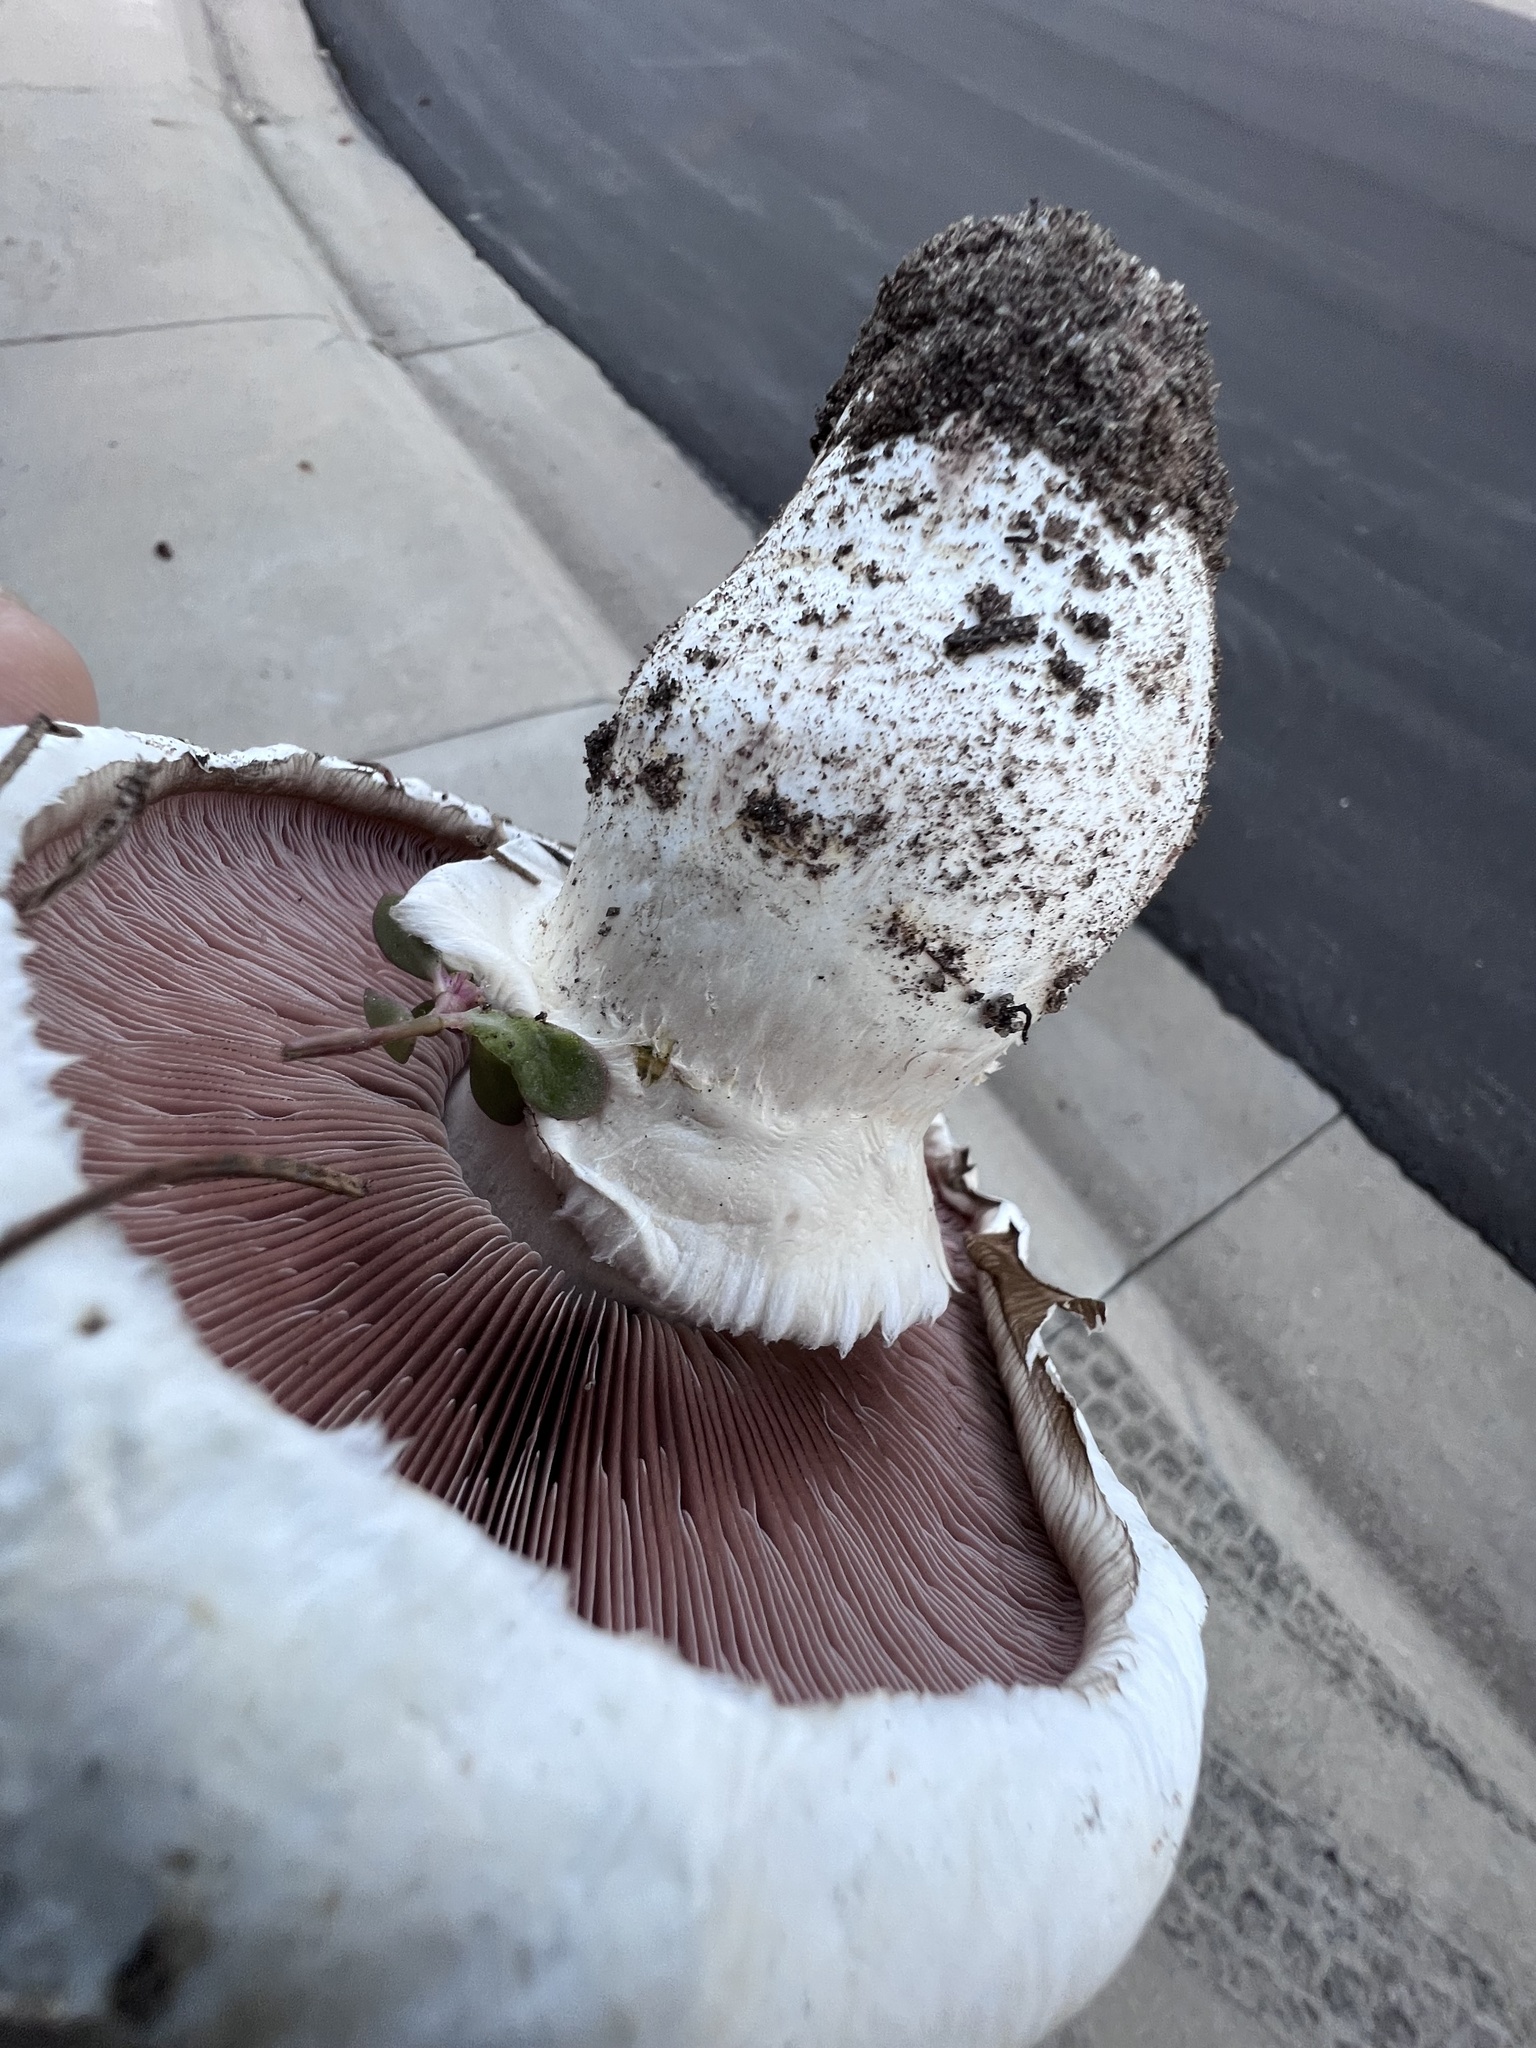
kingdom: Fungi
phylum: Basidiomycota
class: Agaricomycetes
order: Agaricales
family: Agaricaceae
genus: Agaricus
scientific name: Agaricus bernardii
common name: Salty mushroom
